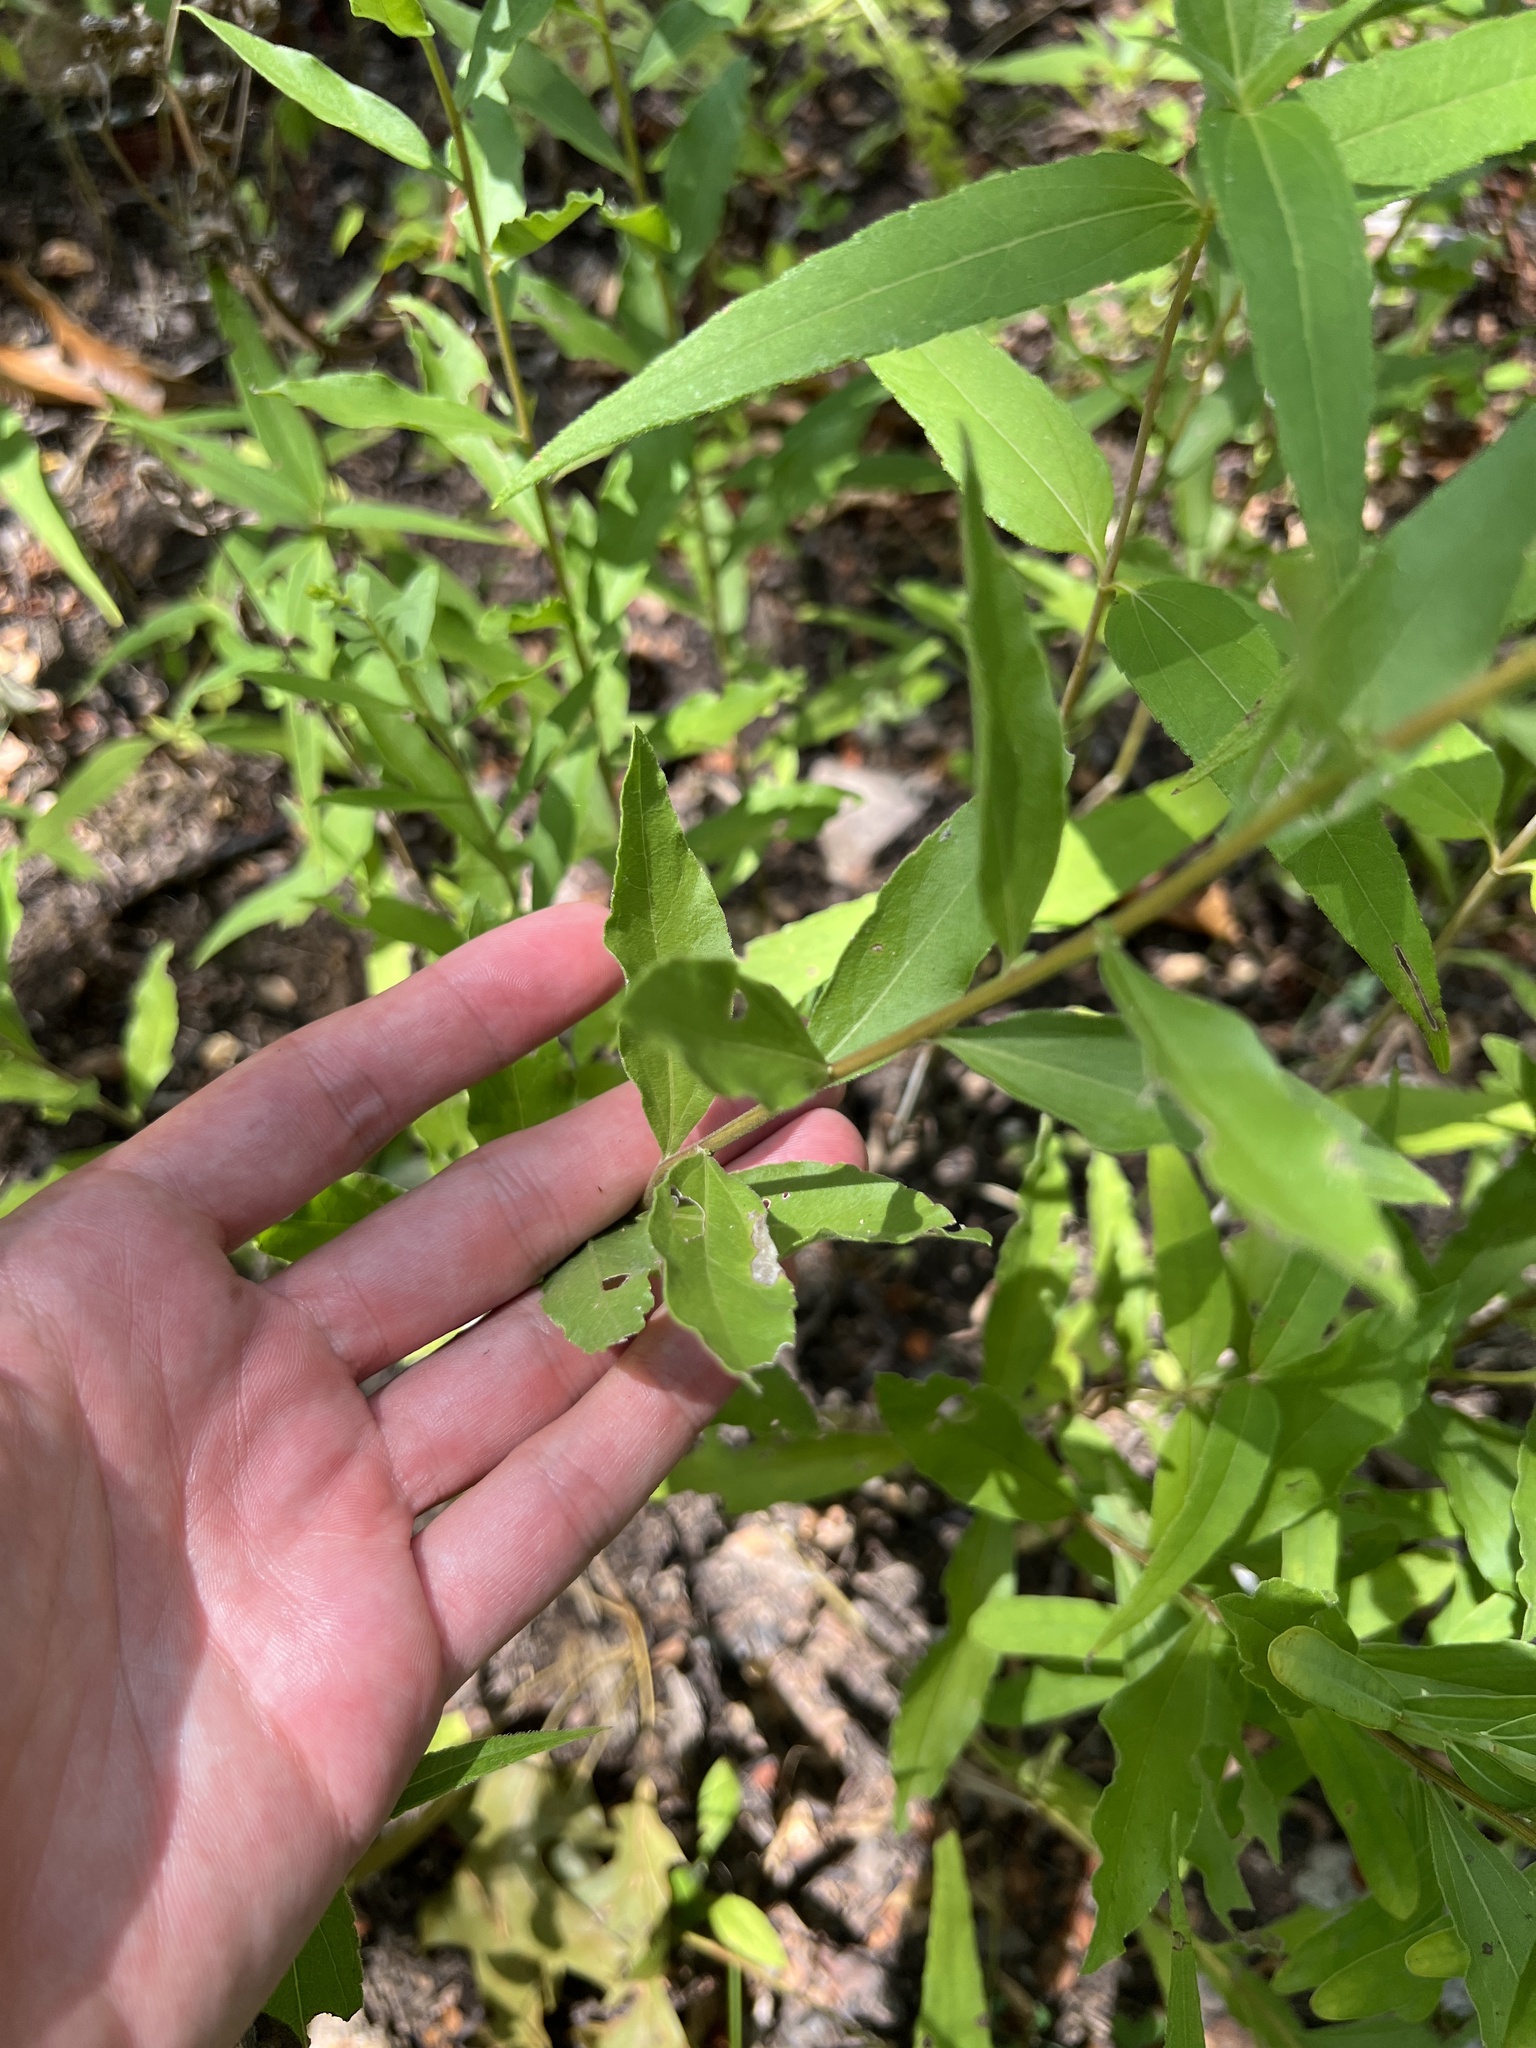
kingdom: Plantae
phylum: Tracheophyta
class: Magnoliopsida
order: Asterales
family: Asteraceae
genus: Solidago
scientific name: Solidago radula
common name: Western rough goldenrod
